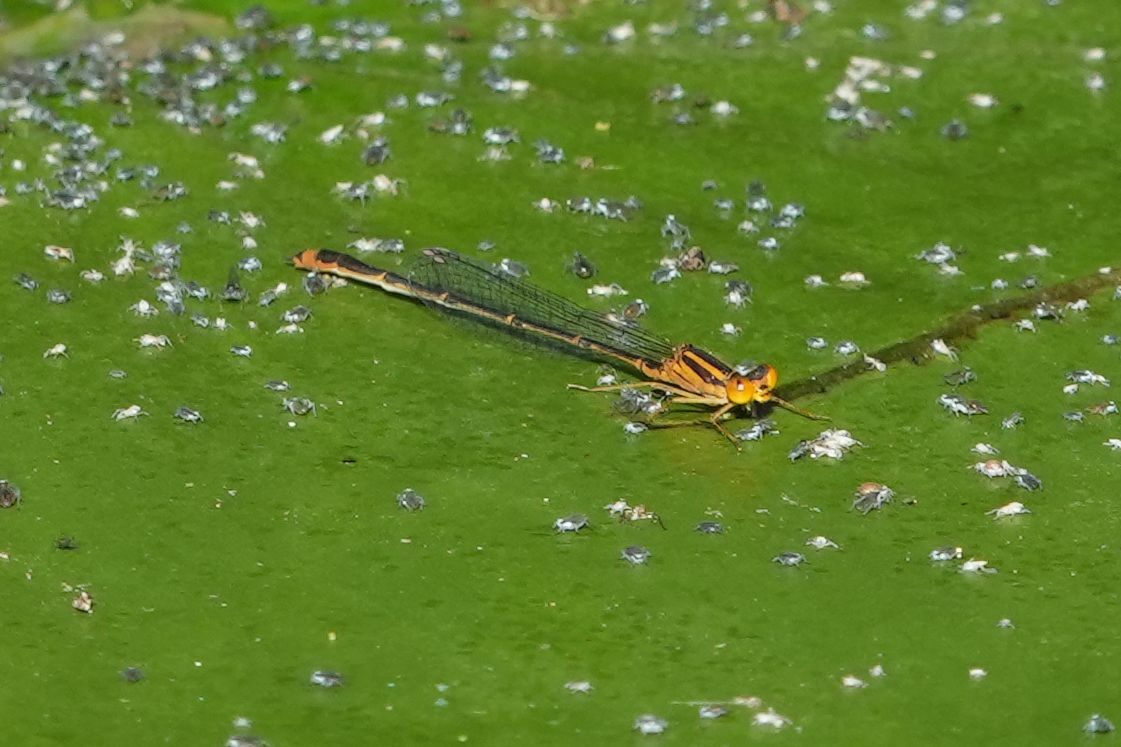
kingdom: Animalia
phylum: Arthropoda
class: Insecta
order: Odonata
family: Coenagrionidae
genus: Enallagma
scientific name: Enallagma signatum
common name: Orange bluet
